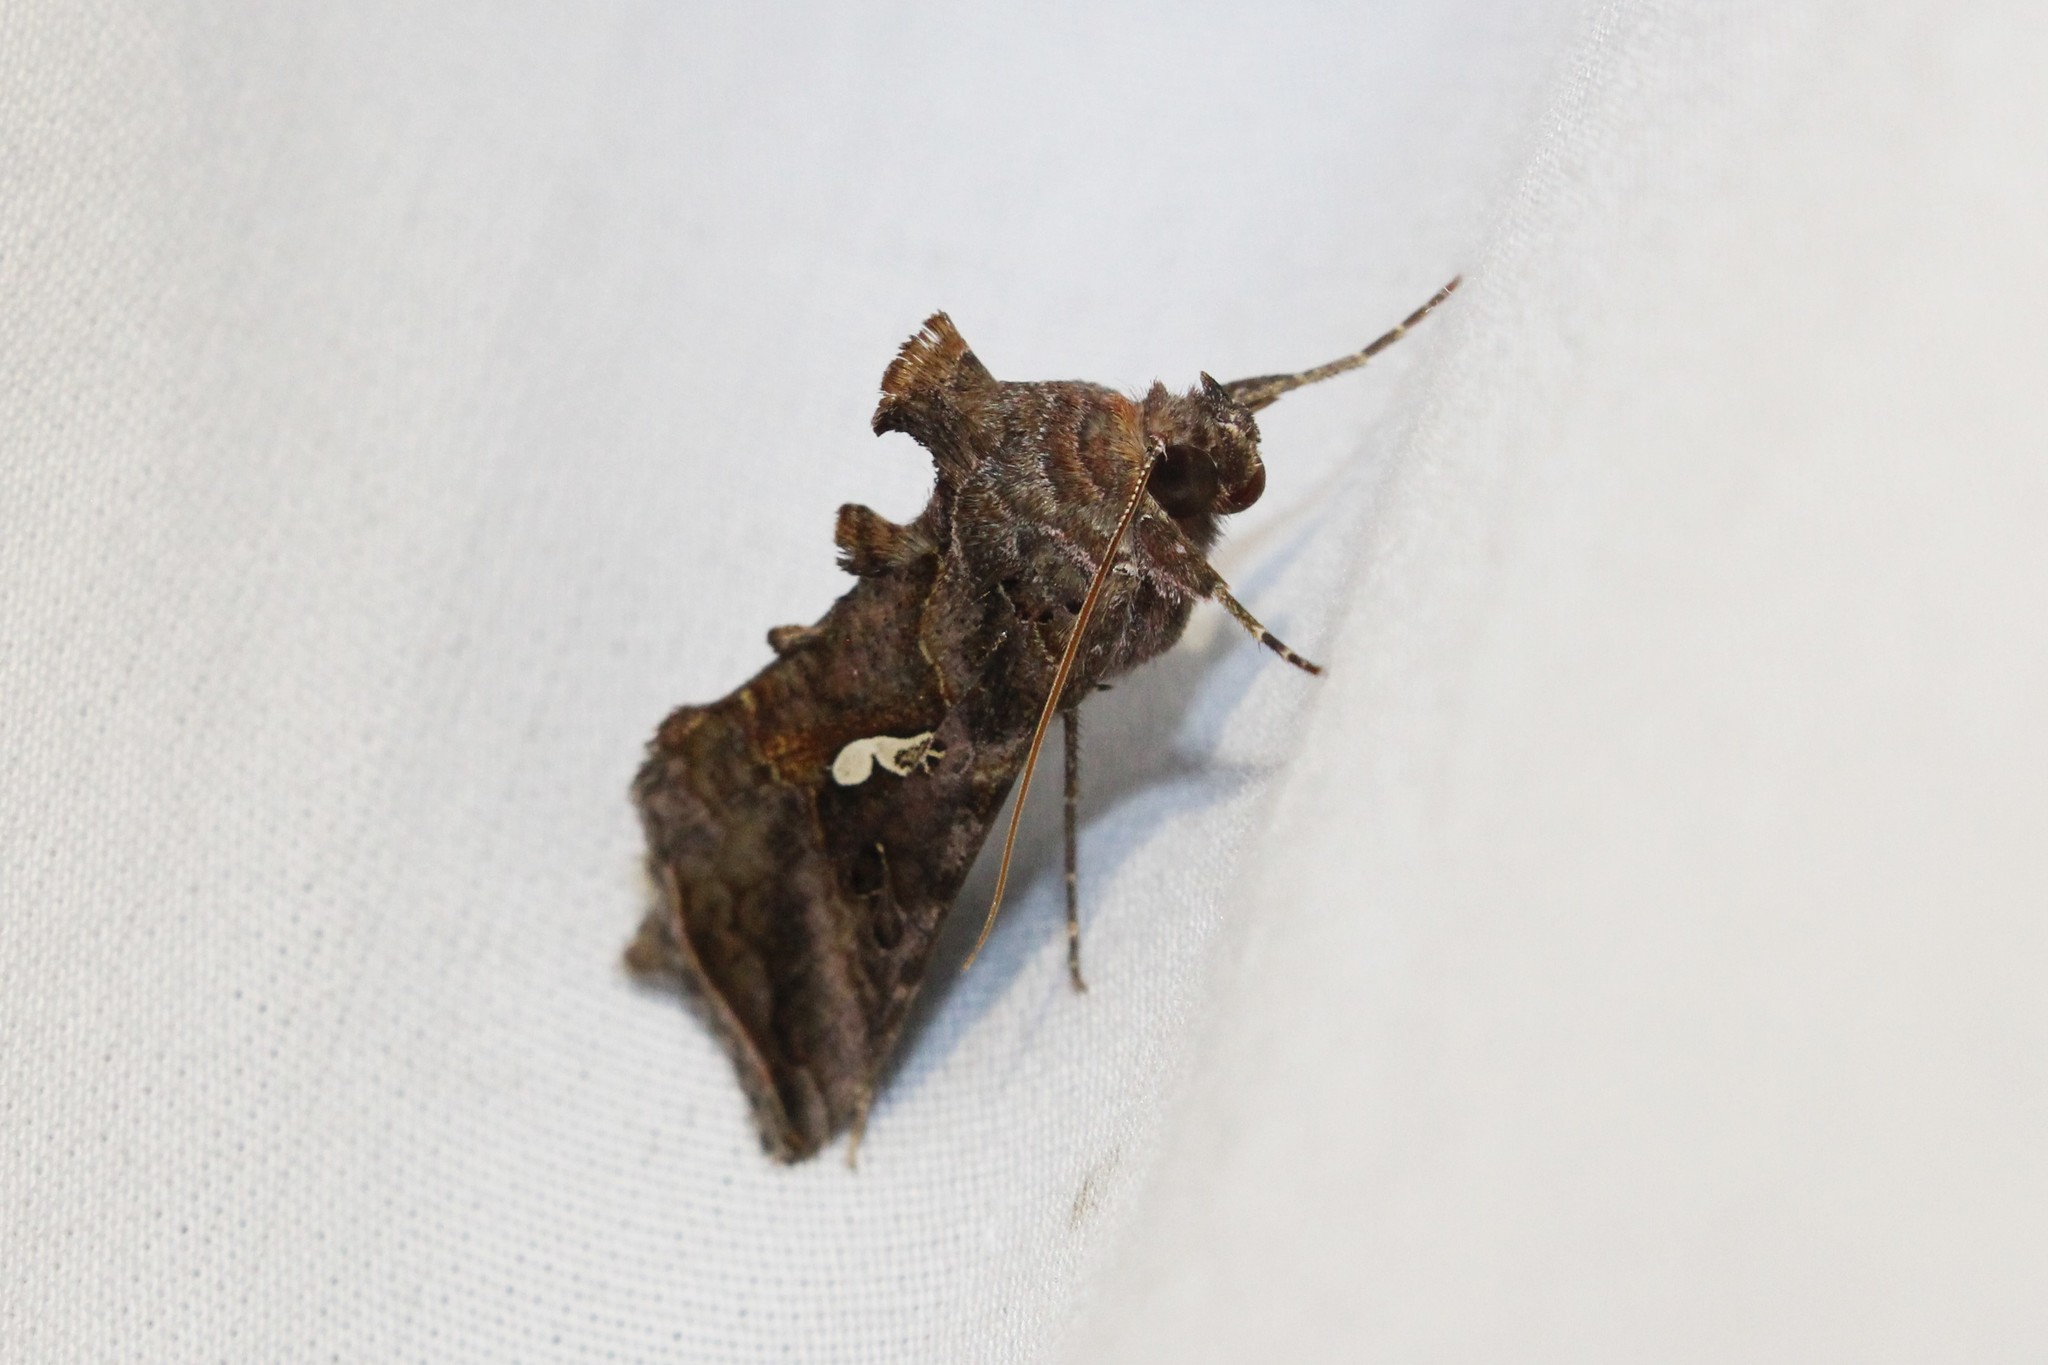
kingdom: Animalia
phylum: Arthropoda
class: Insecta
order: Lepidoptera
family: Noctuidae
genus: Autographa
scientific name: Autographa precationis
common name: Common looper moth
